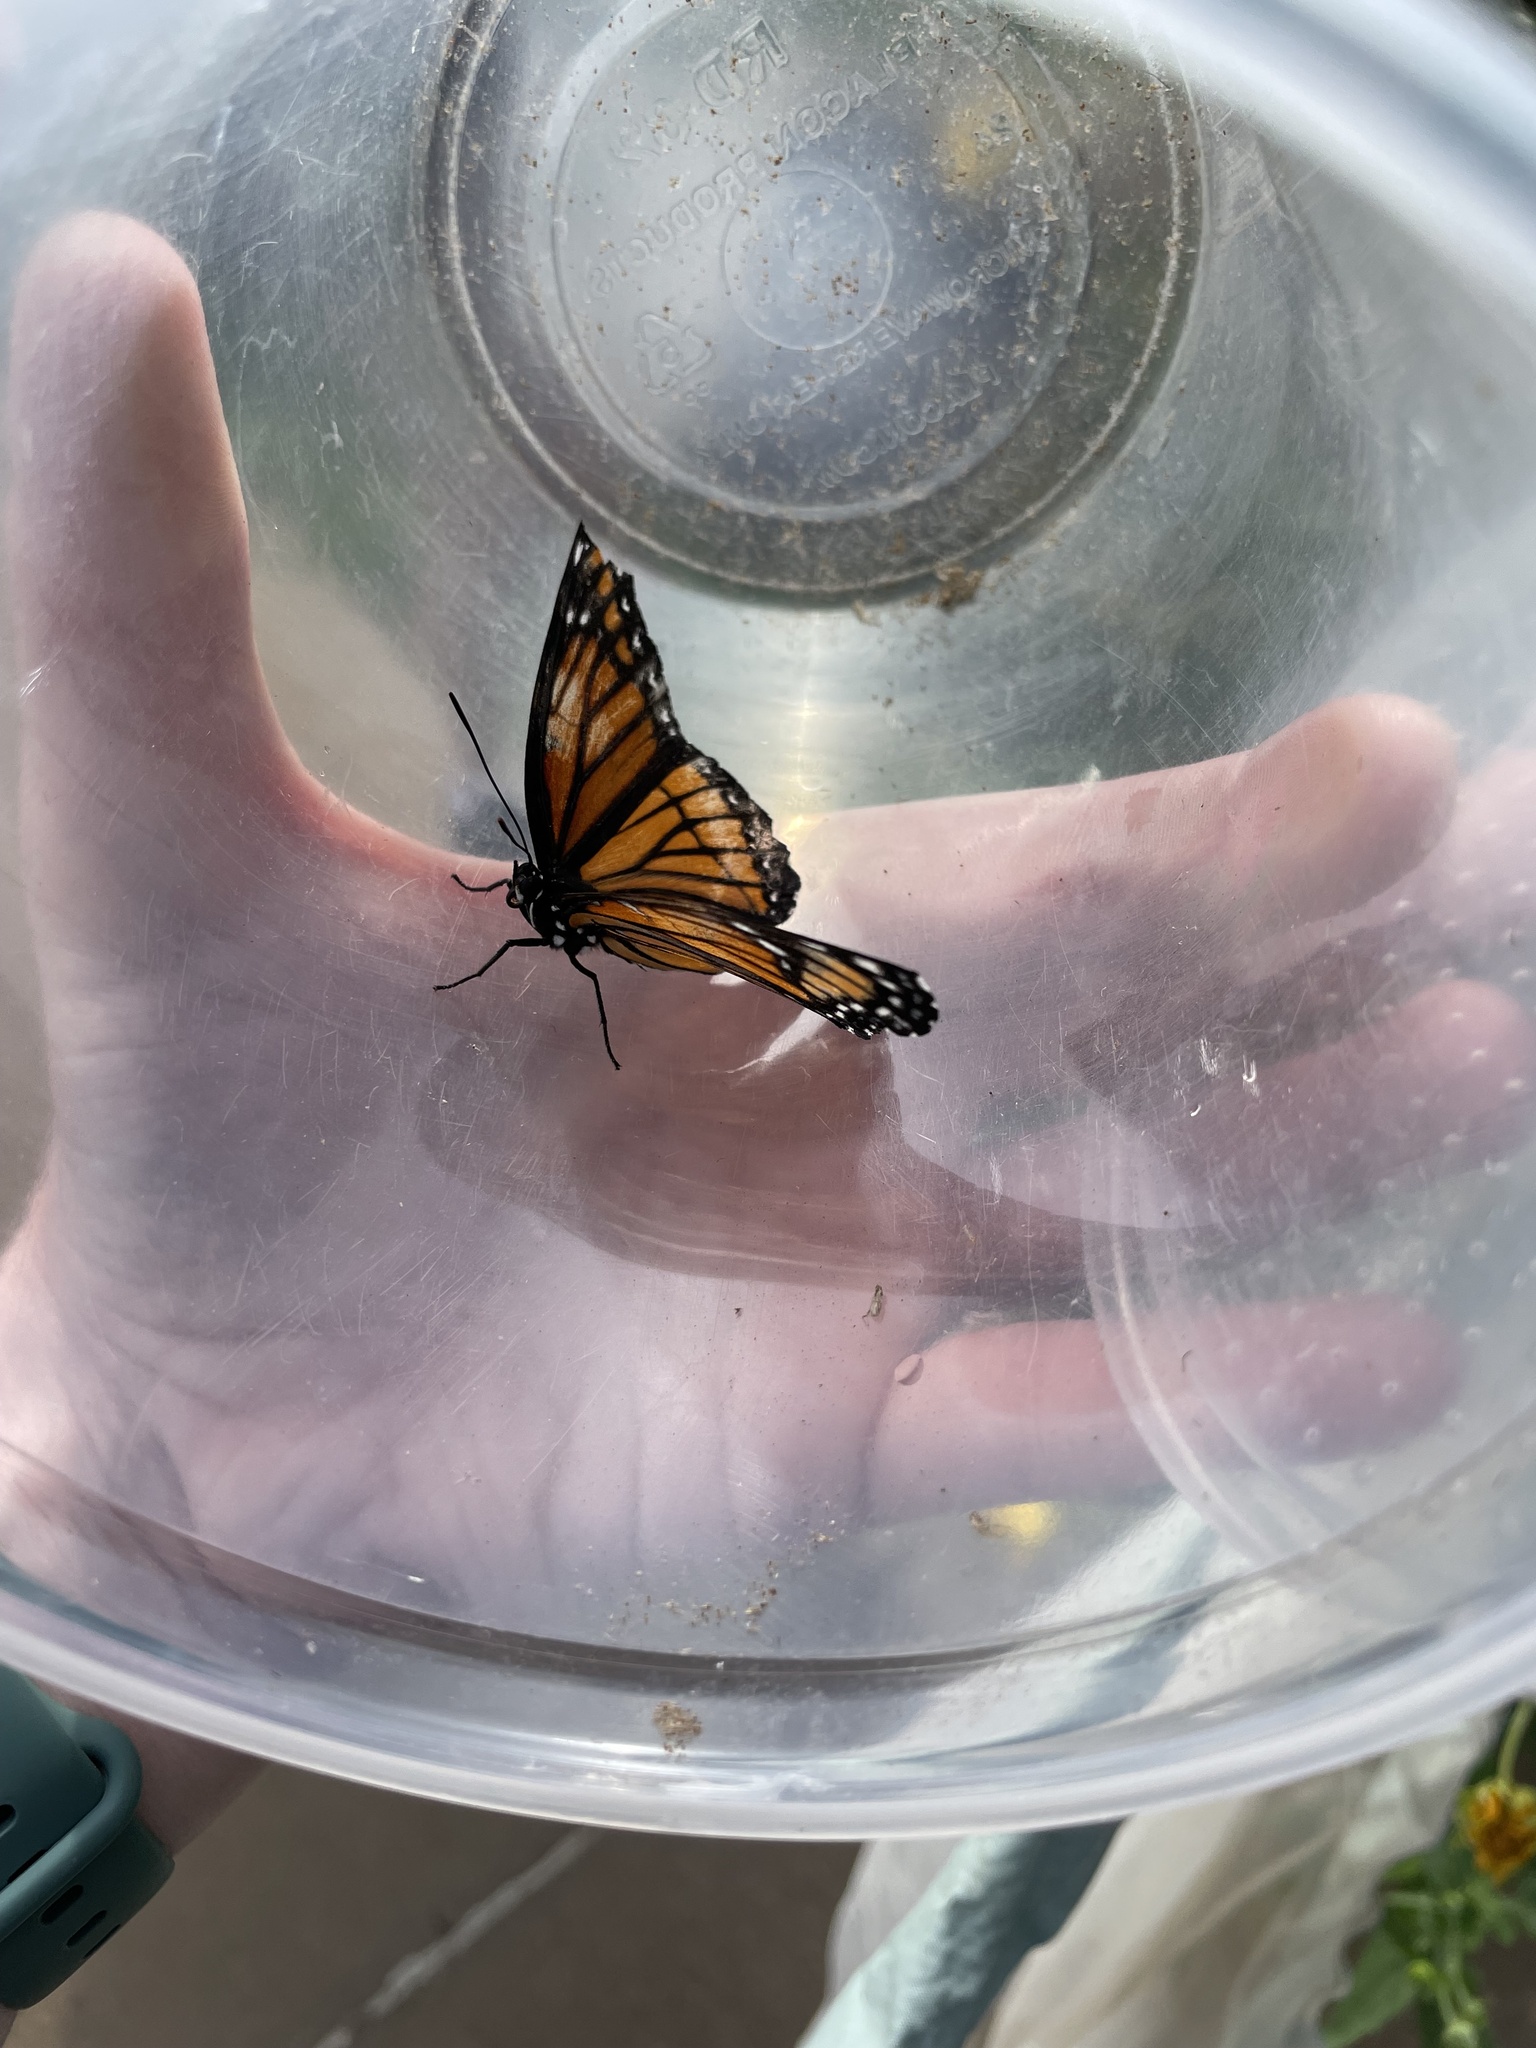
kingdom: Animalia
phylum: Arthropoda
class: Insecta
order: Lepidoptera
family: Nymphalidae
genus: Limenitis
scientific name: Limenitis archippus
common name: Viceroy
